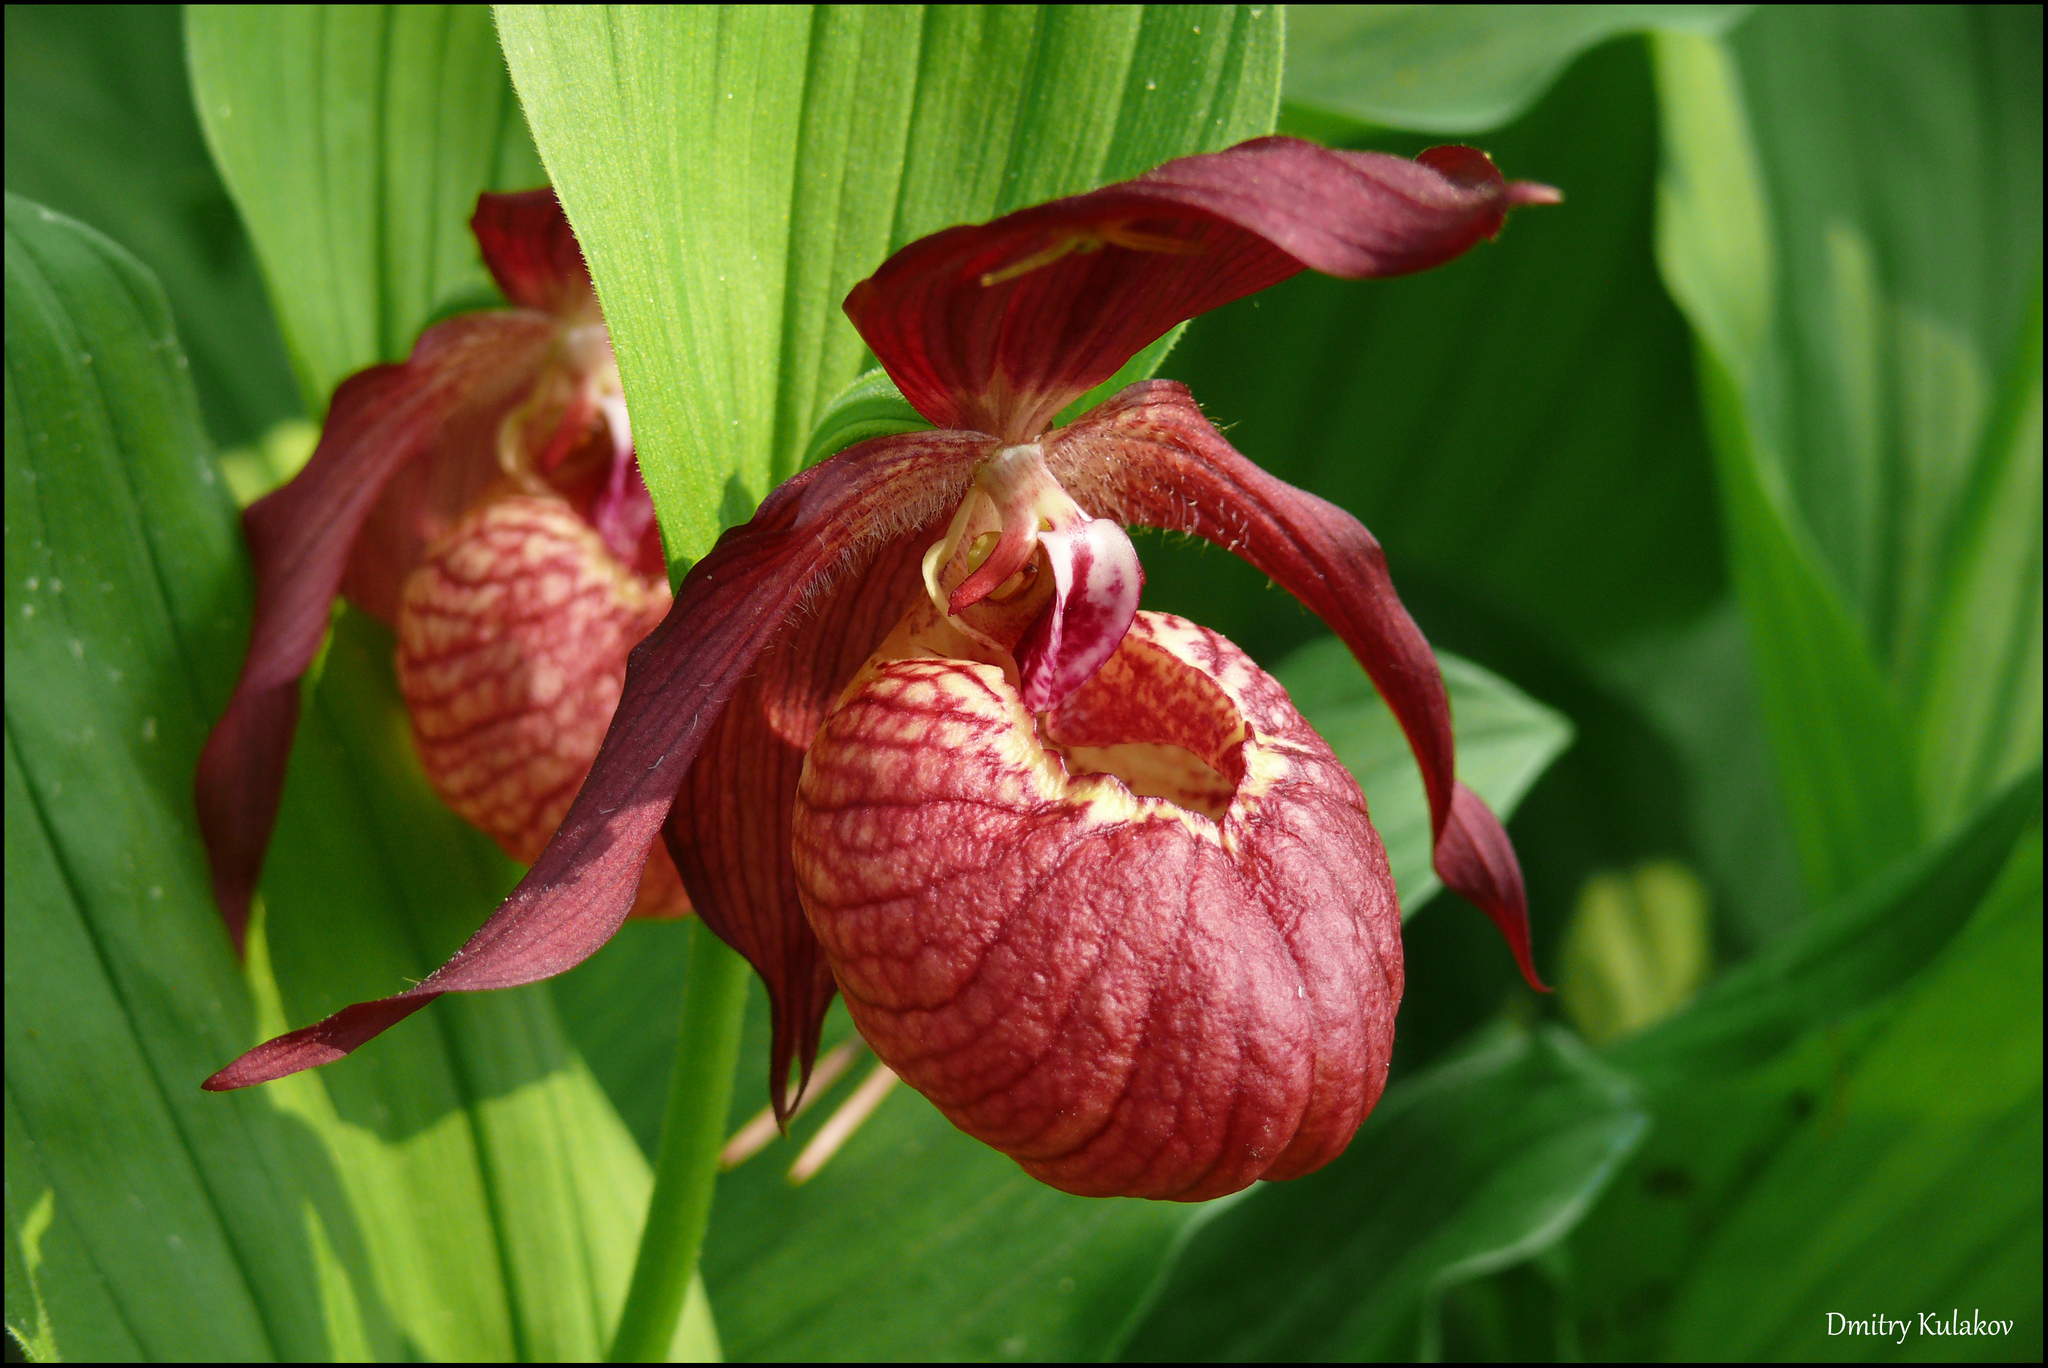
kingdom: Plantae
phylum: Tracheophyta
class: Liliopsida
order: Asparagales
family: Orchidaceae
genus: Cypripedium
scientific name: Cypripedium ventricosum
